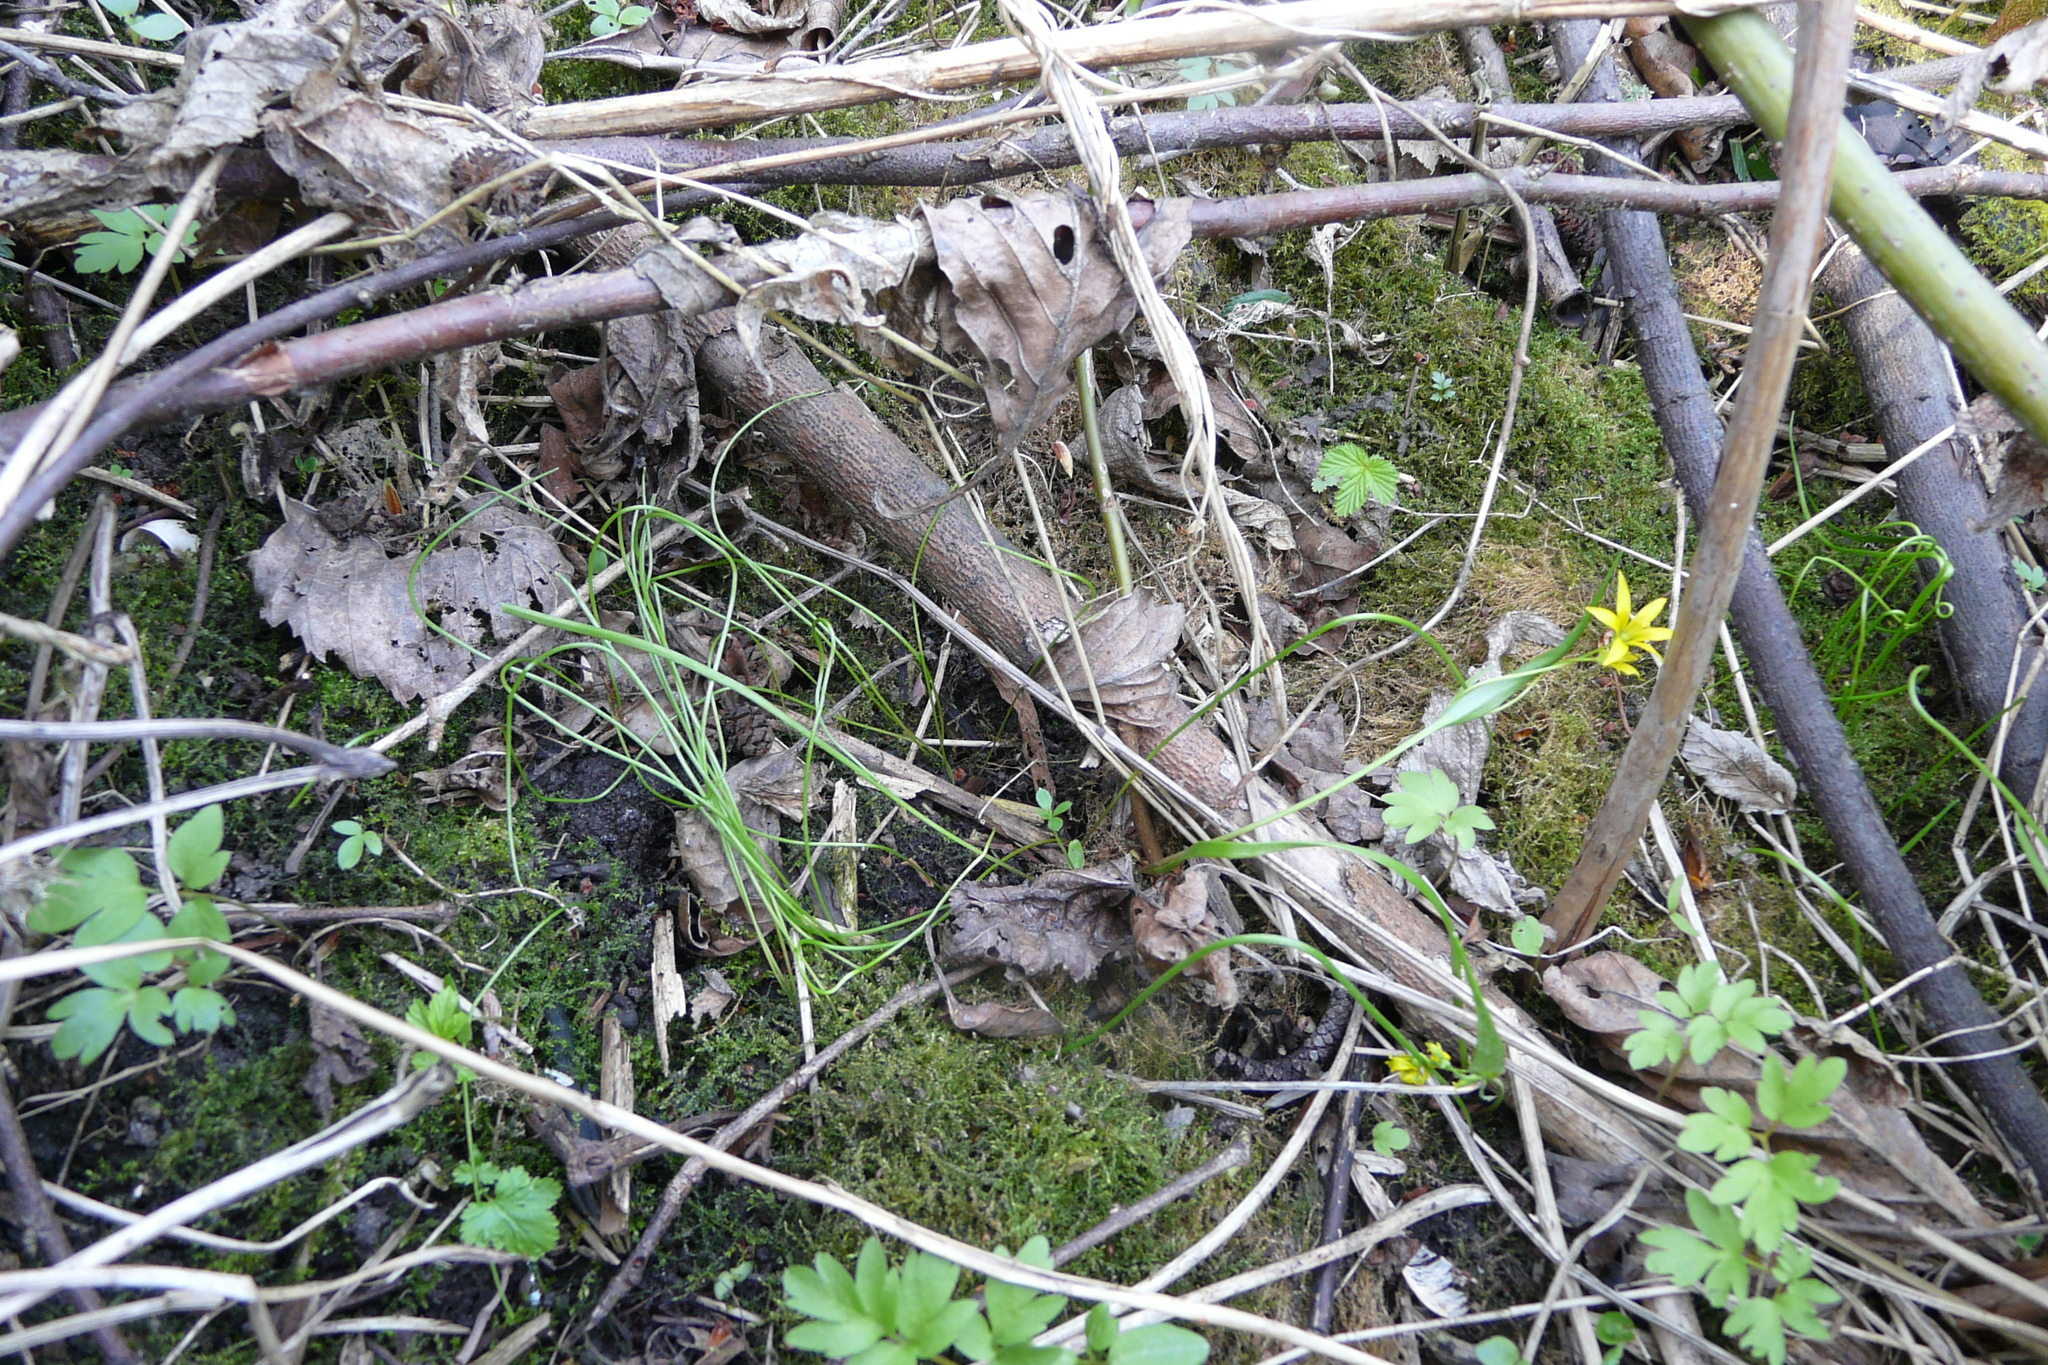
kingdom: Plantae
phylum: Tracheophyta
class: Liliopsida
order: Liliales
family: Liliaceae
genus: Gagea
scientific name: Gagea minima
